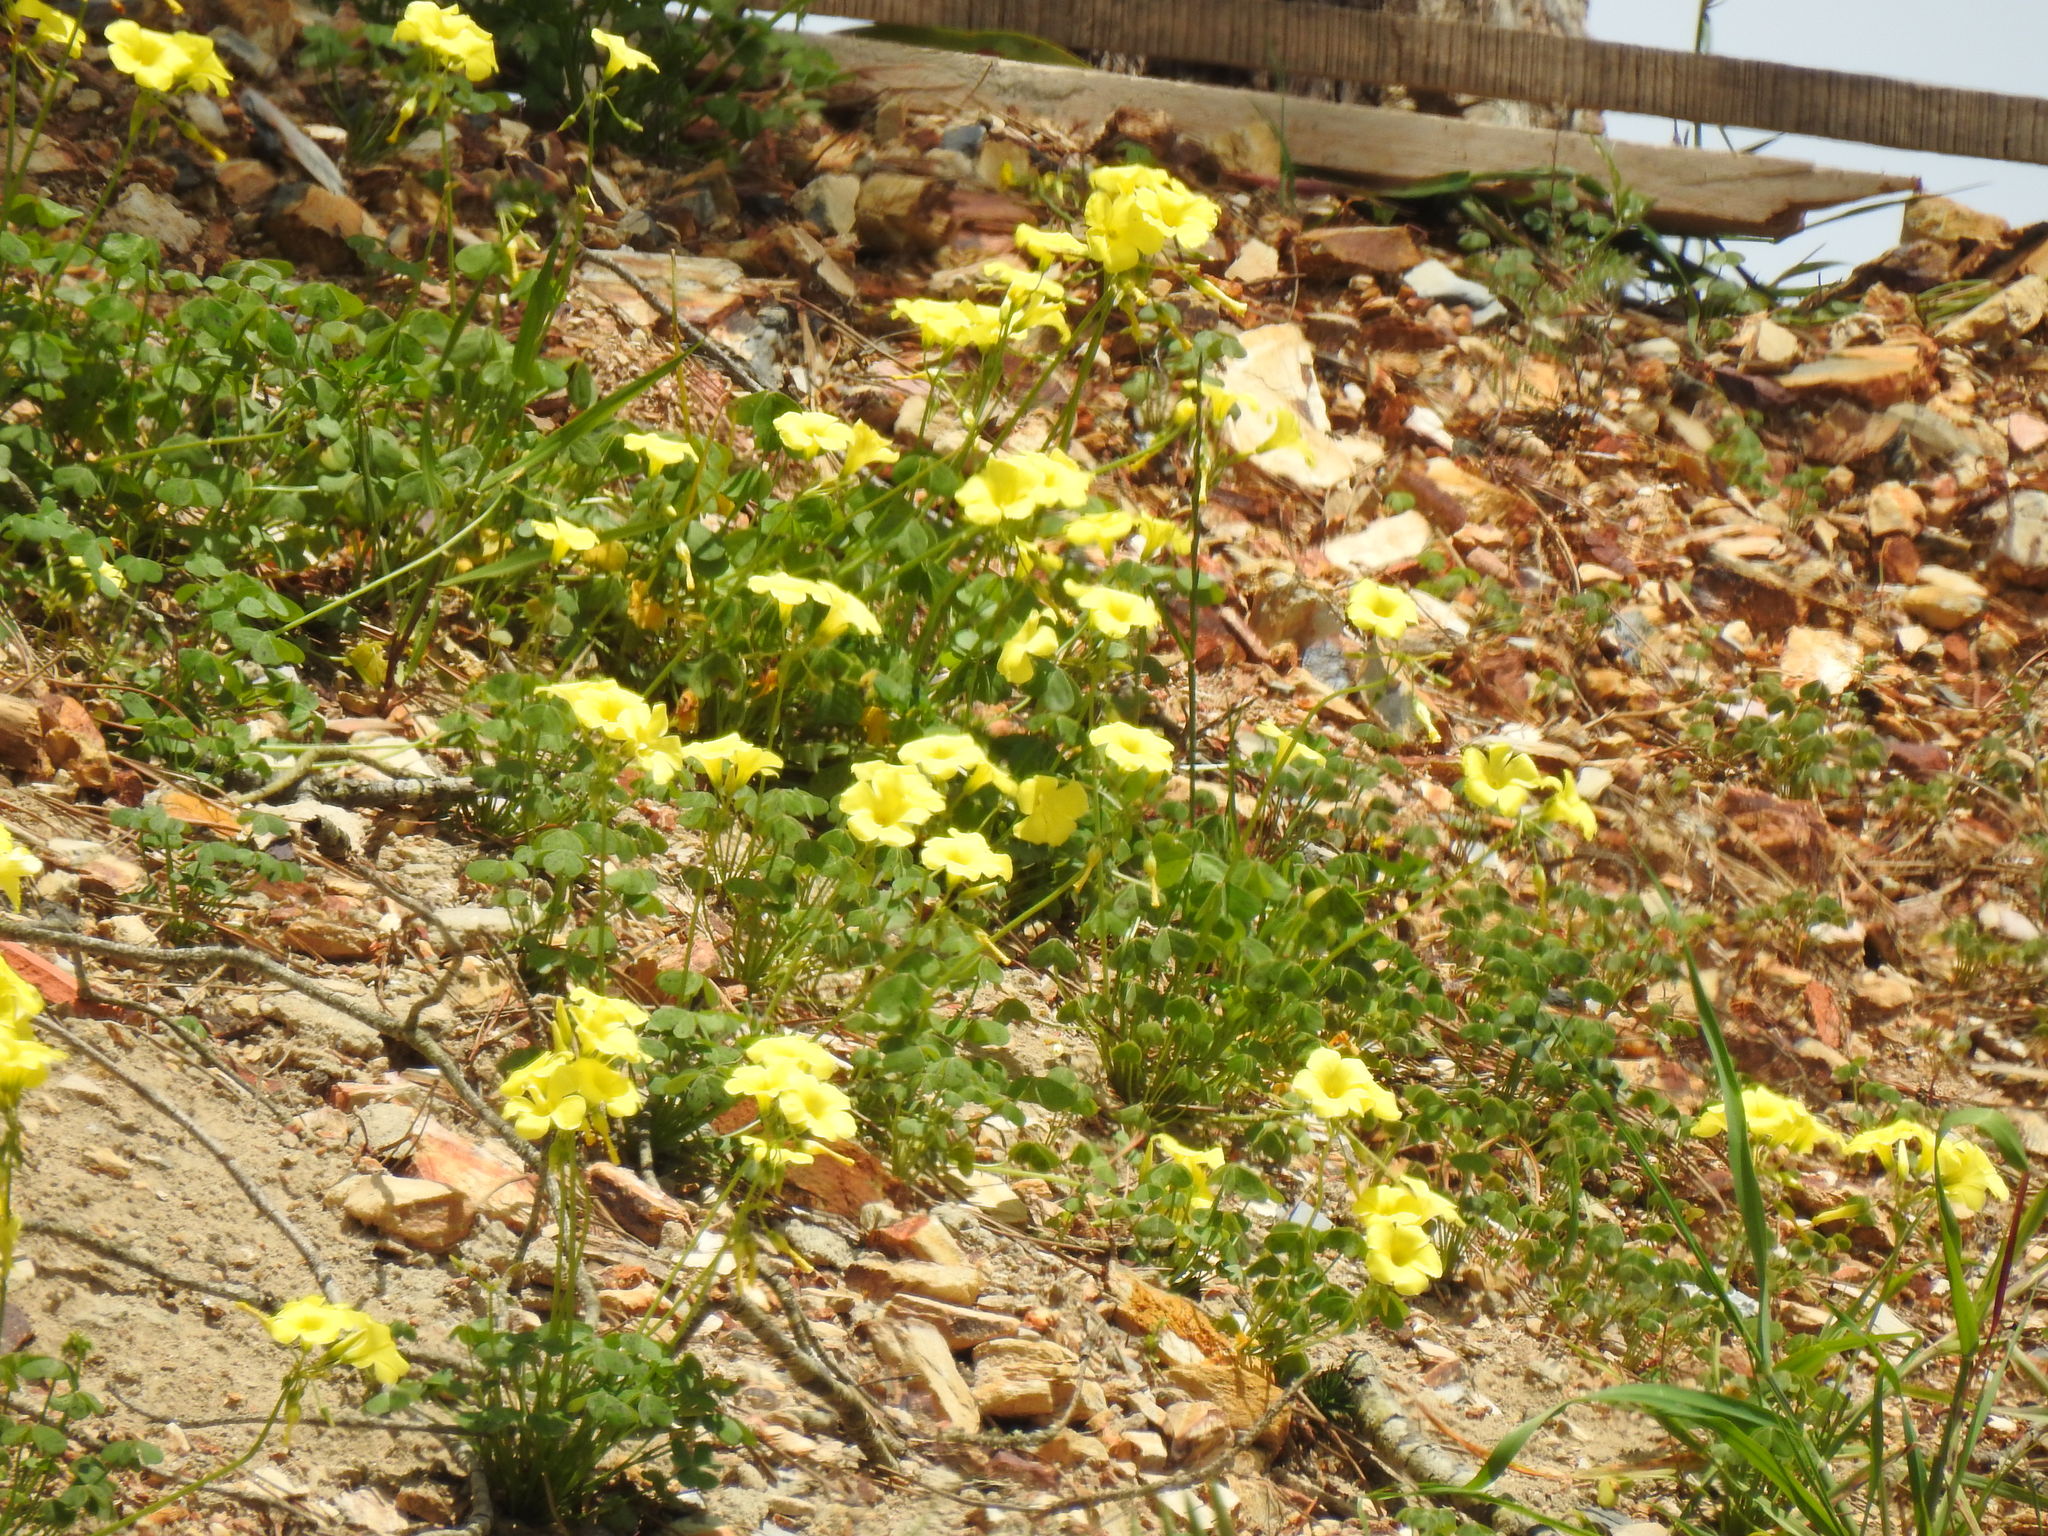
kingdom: Plantae
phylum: Tracheophyta
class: Magnoliopsida
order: Oxalidales
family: Oxalidaceae
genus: Oxalis
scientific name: Oxalis pes-caprae
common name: Bermuda-buttercup
